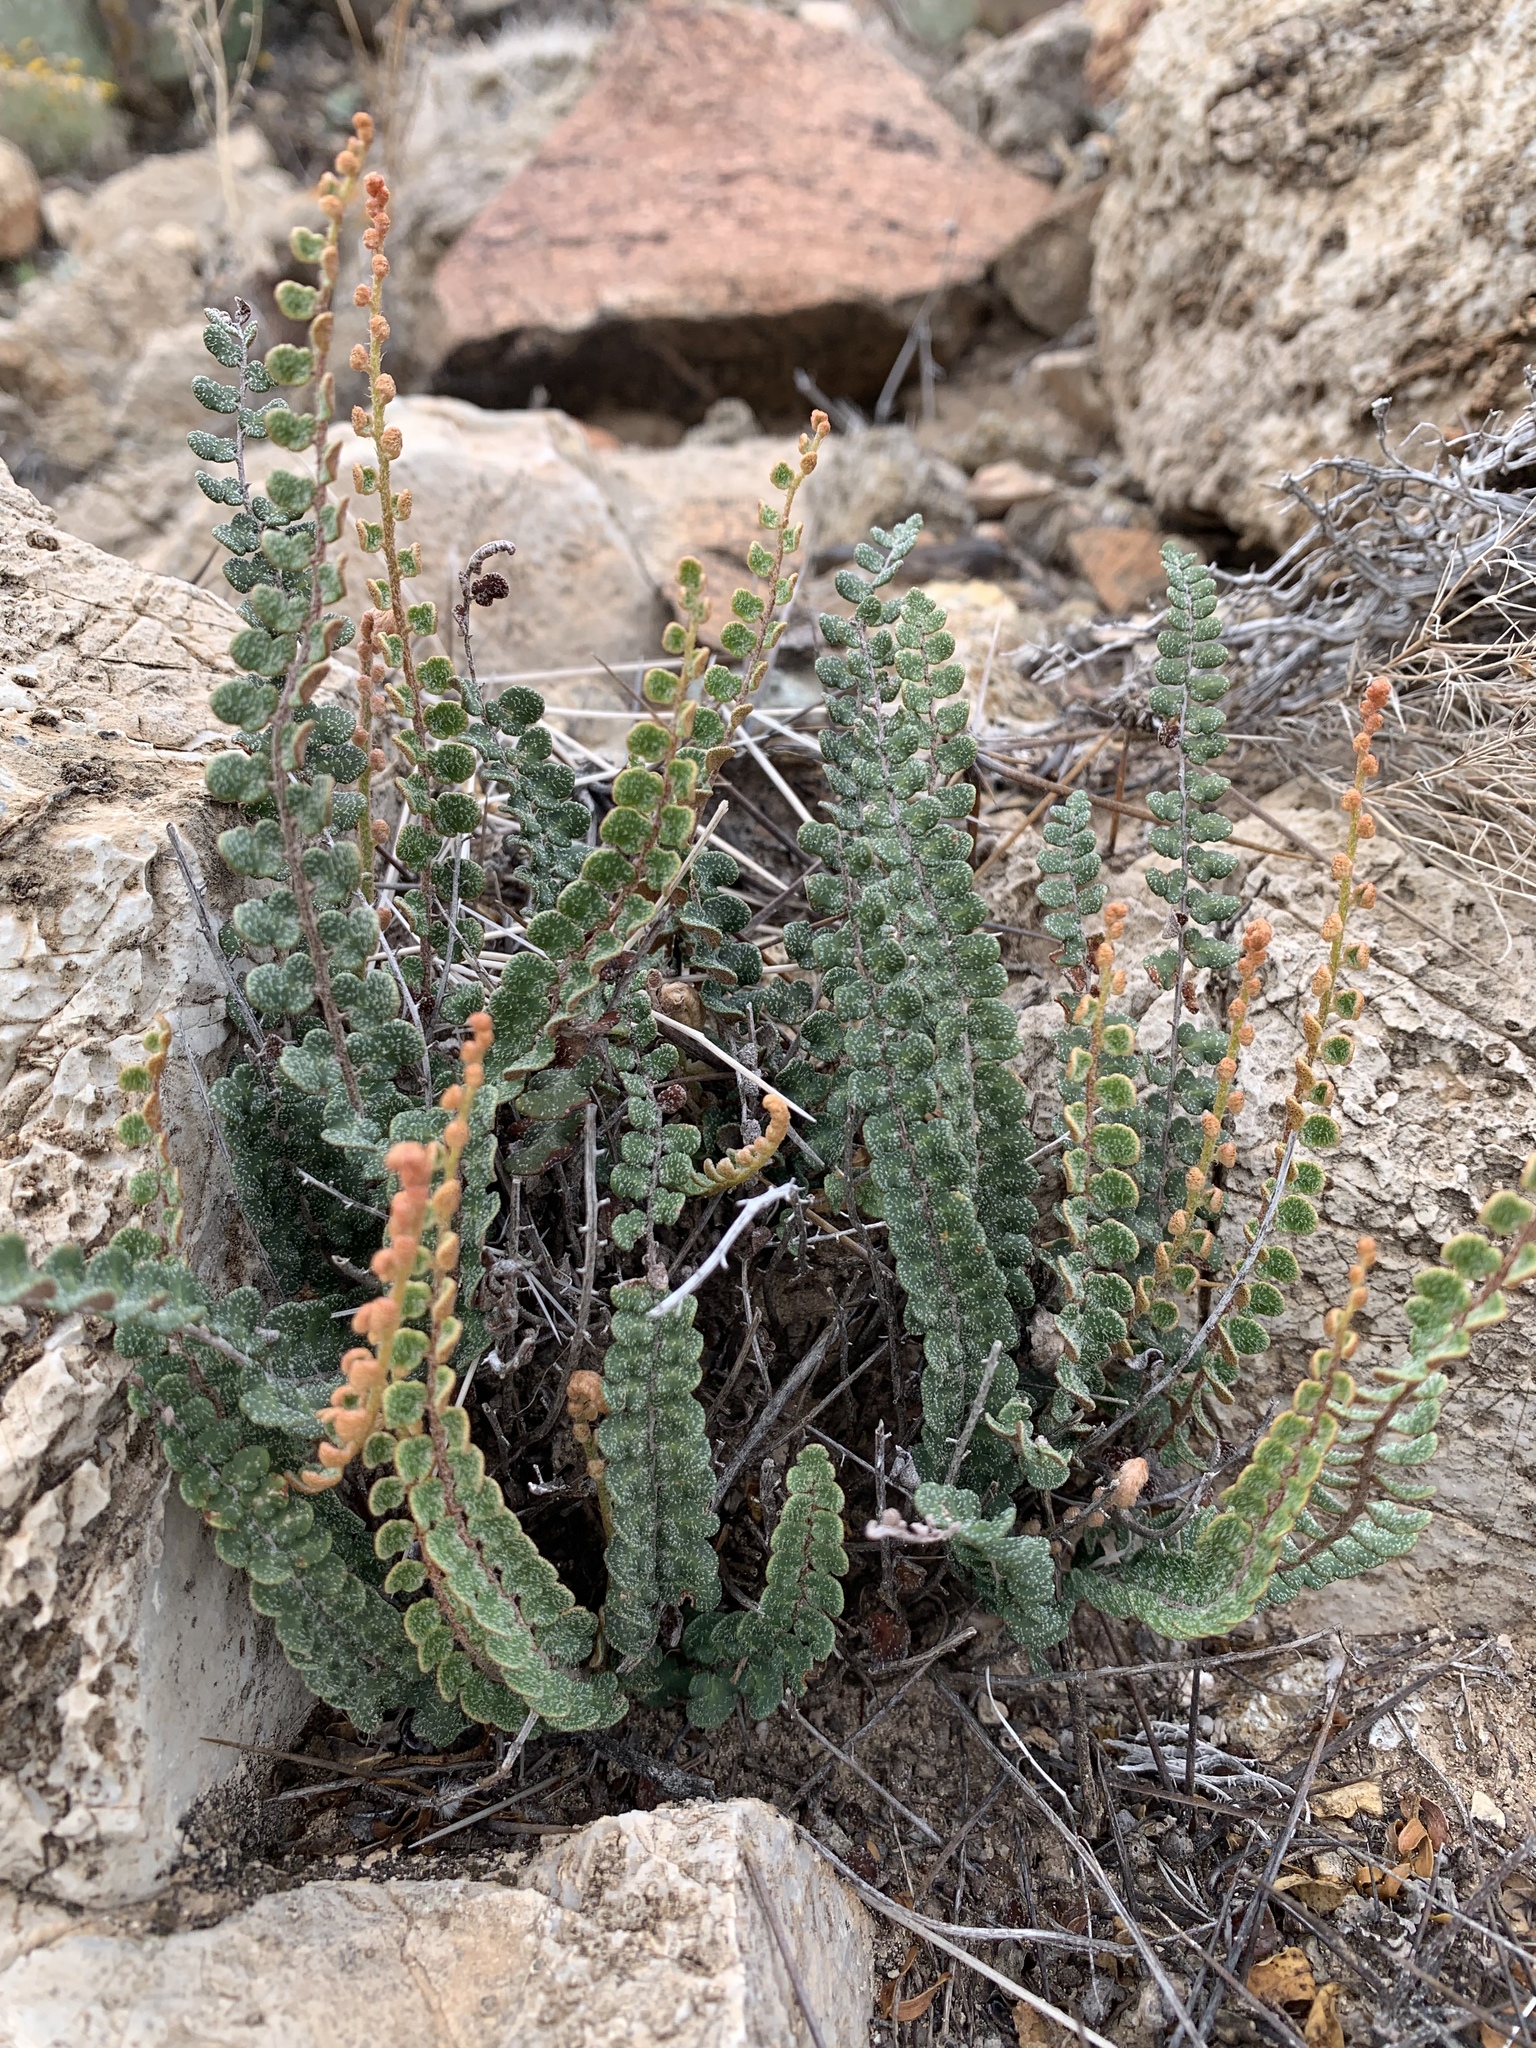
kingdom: Plantae
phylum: Tracheophyta
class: Polypodiopsida
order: Polypodiales
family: Pteridaceae
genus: Astrolepis
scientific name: Astrolepis cochisensis
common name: Scaly cloak fern
